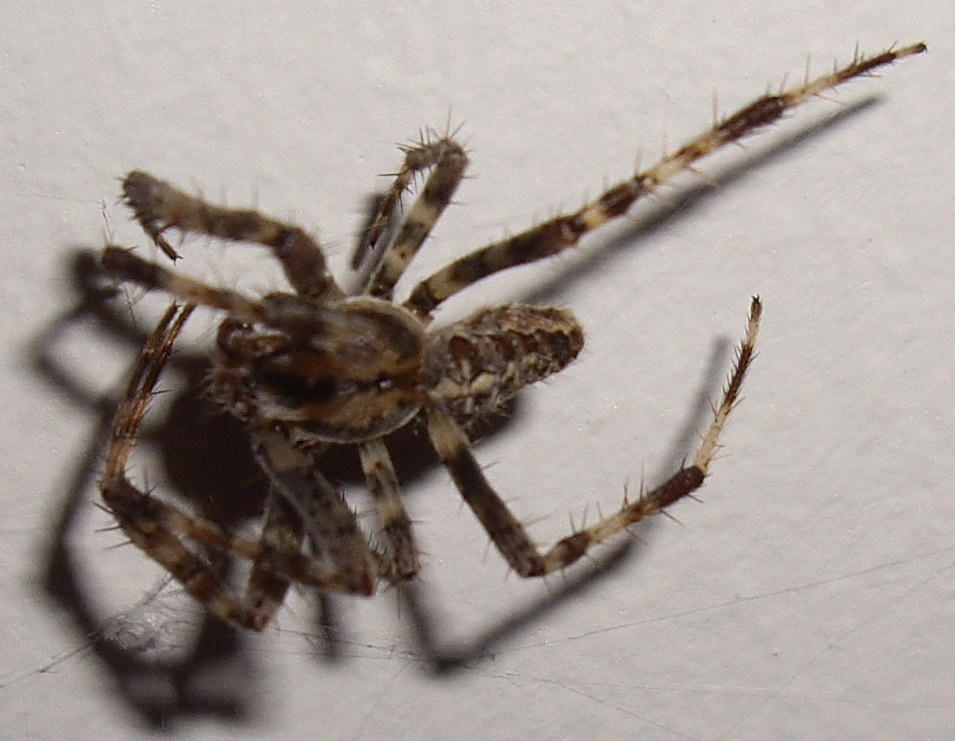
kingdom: Animalia
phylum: Arthropoda
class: Arachnida
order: Araneae
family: Araneidae
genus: Araneus
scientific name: Araneus diadematus
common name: Cross orbweaver
